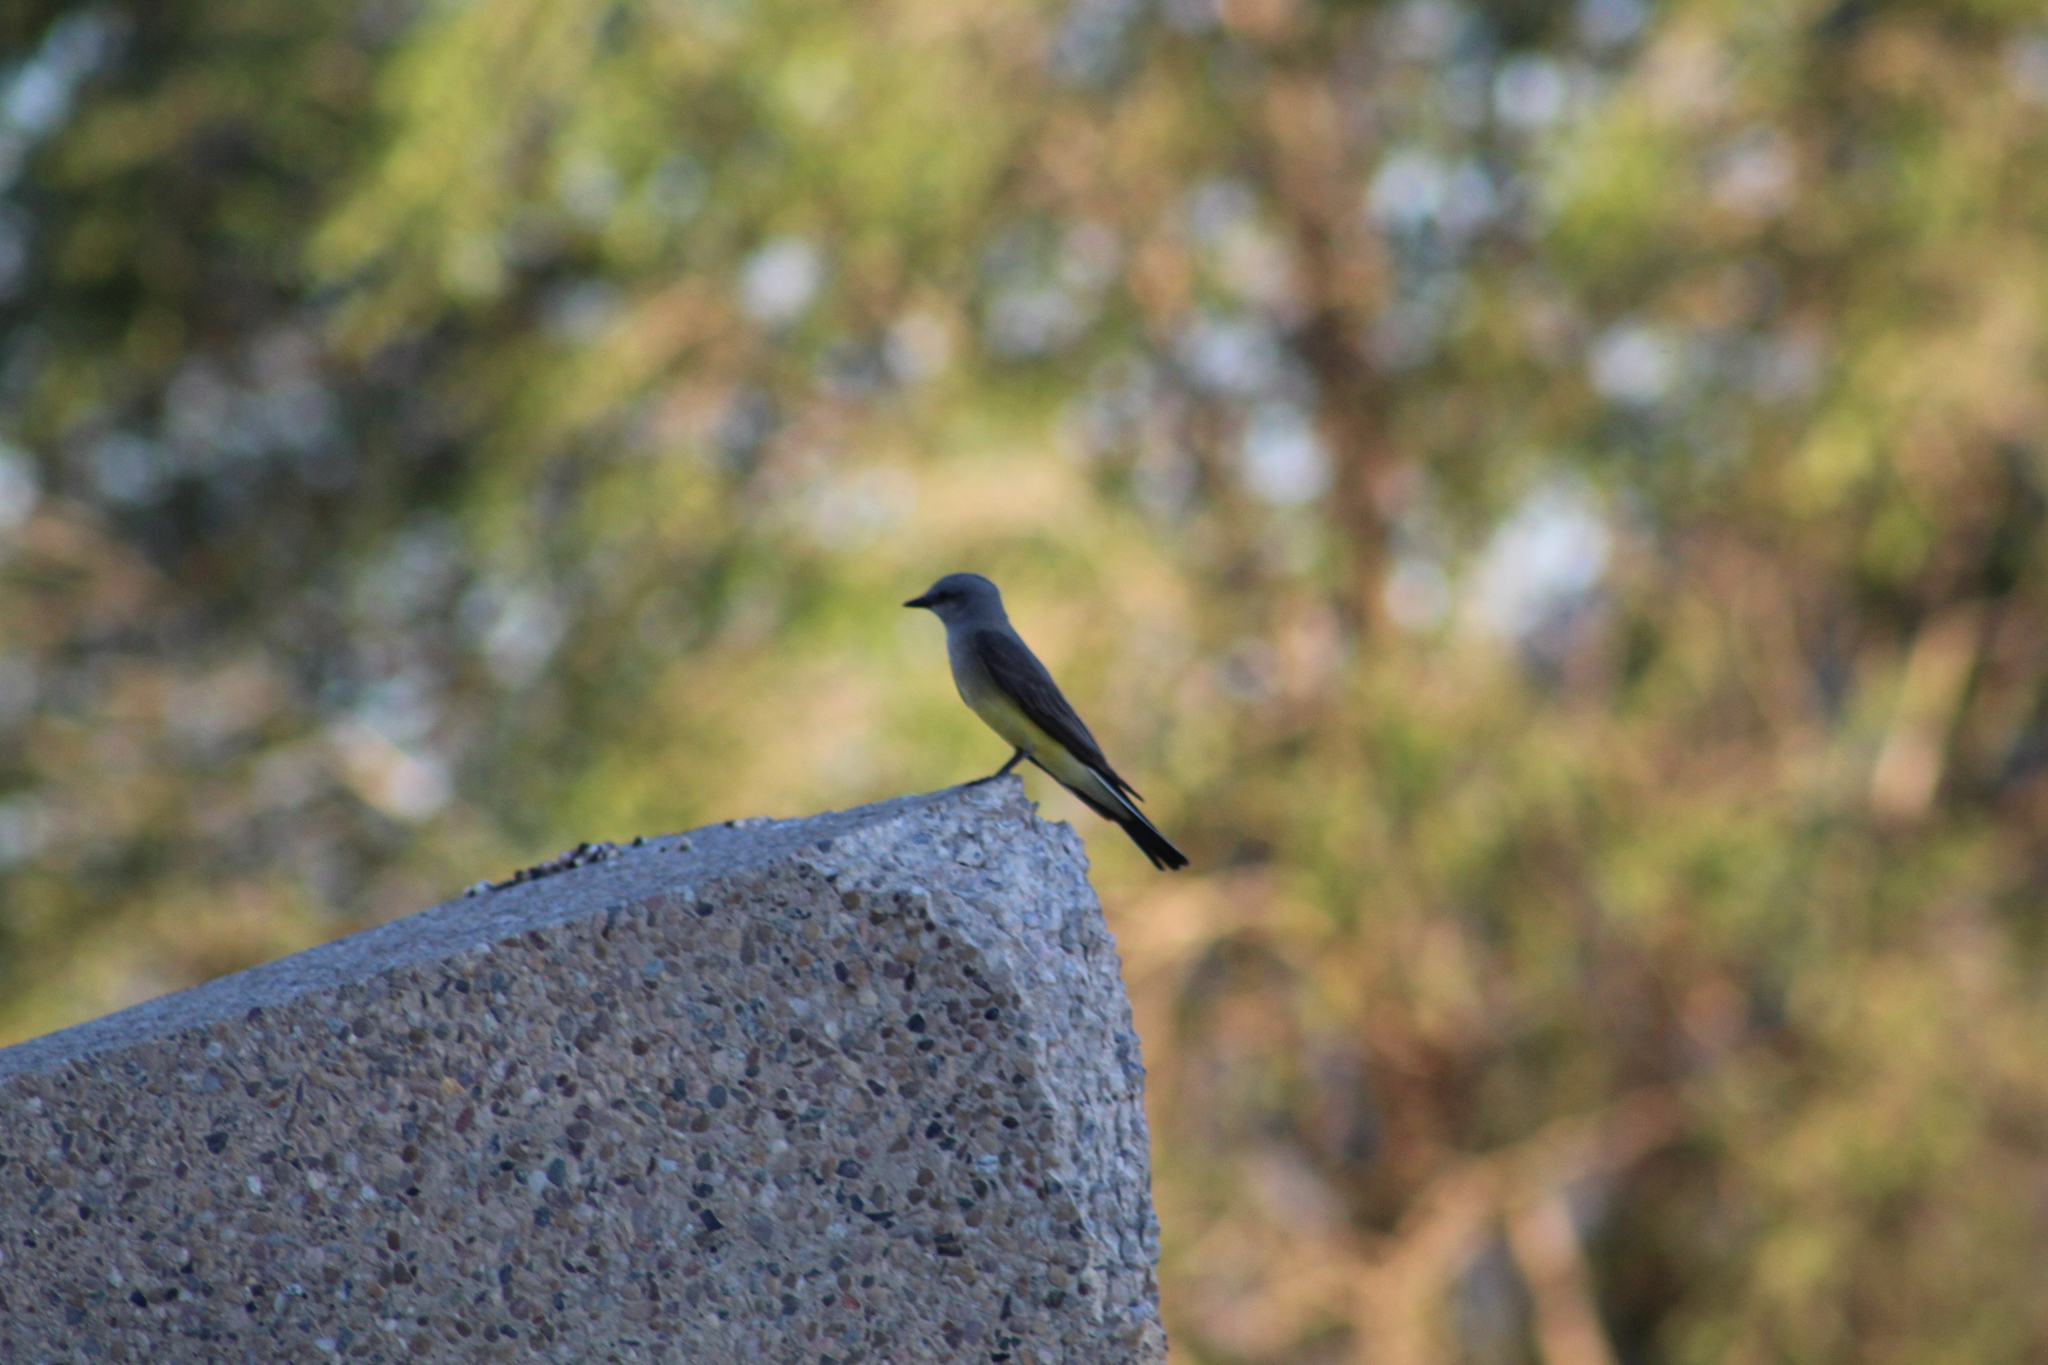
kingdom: Animalia
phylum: Chordata
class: Aves
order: Passeriformes
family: Tyrannidae
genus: Tyrannus
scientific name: Tyrannus verticalis
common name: Western kingbird
